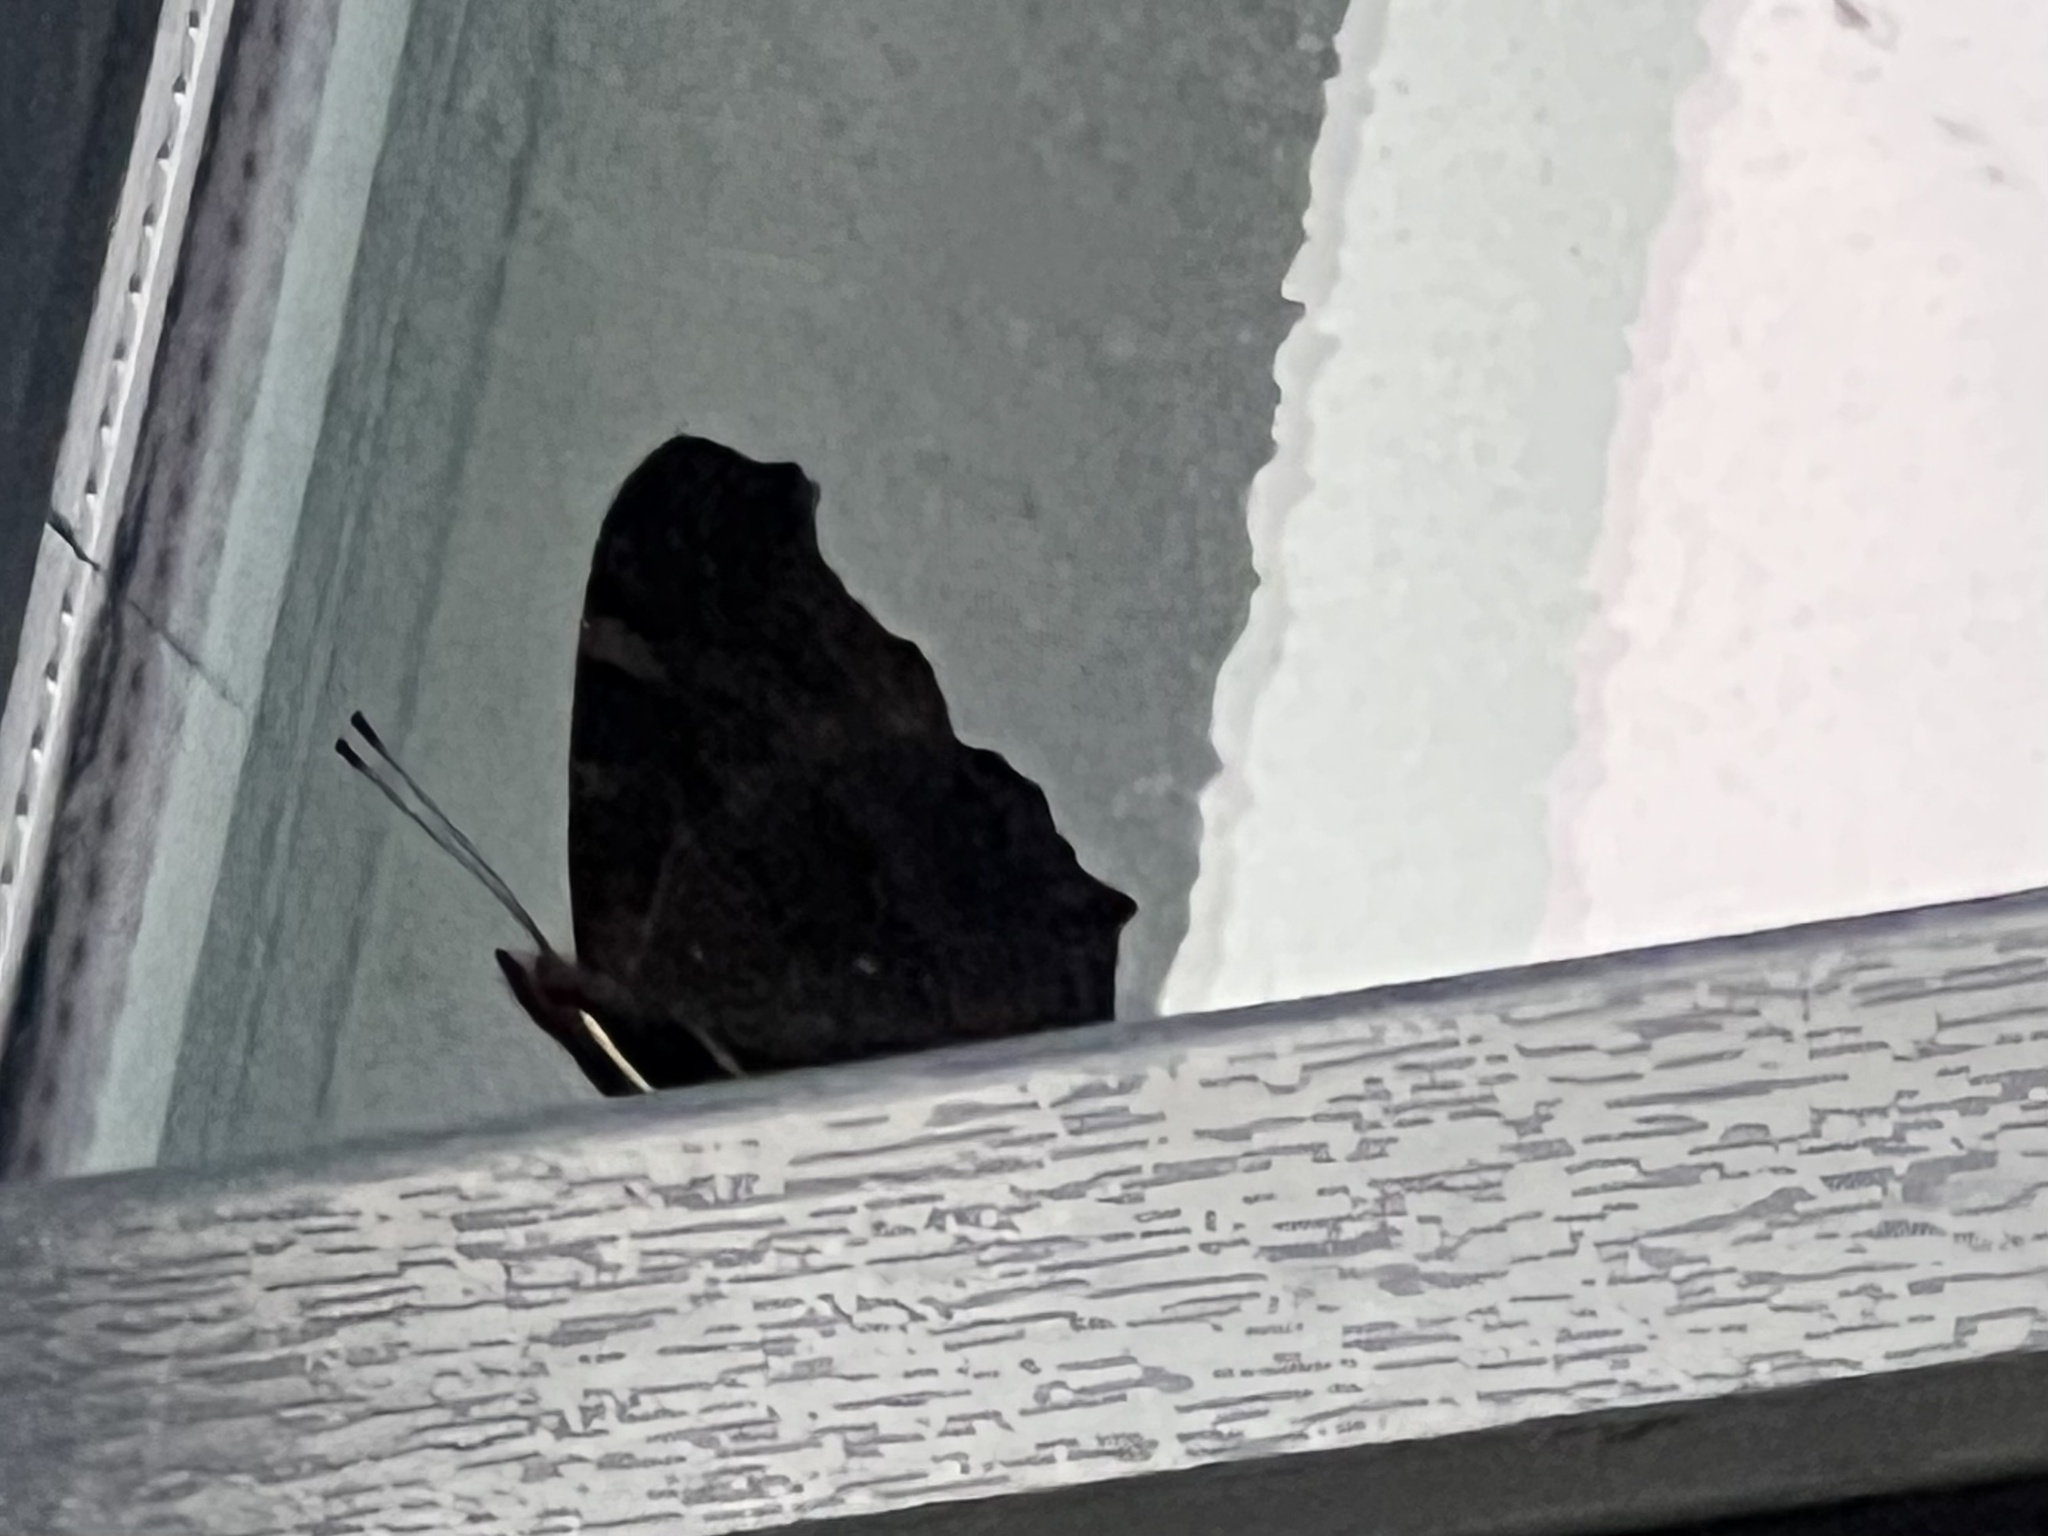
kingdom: Animalia
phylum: Arthropoda
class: Insecta
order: Lepidoptera
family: Nymphalidae
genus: Aglais
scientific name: Aglais io
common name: Peacock
